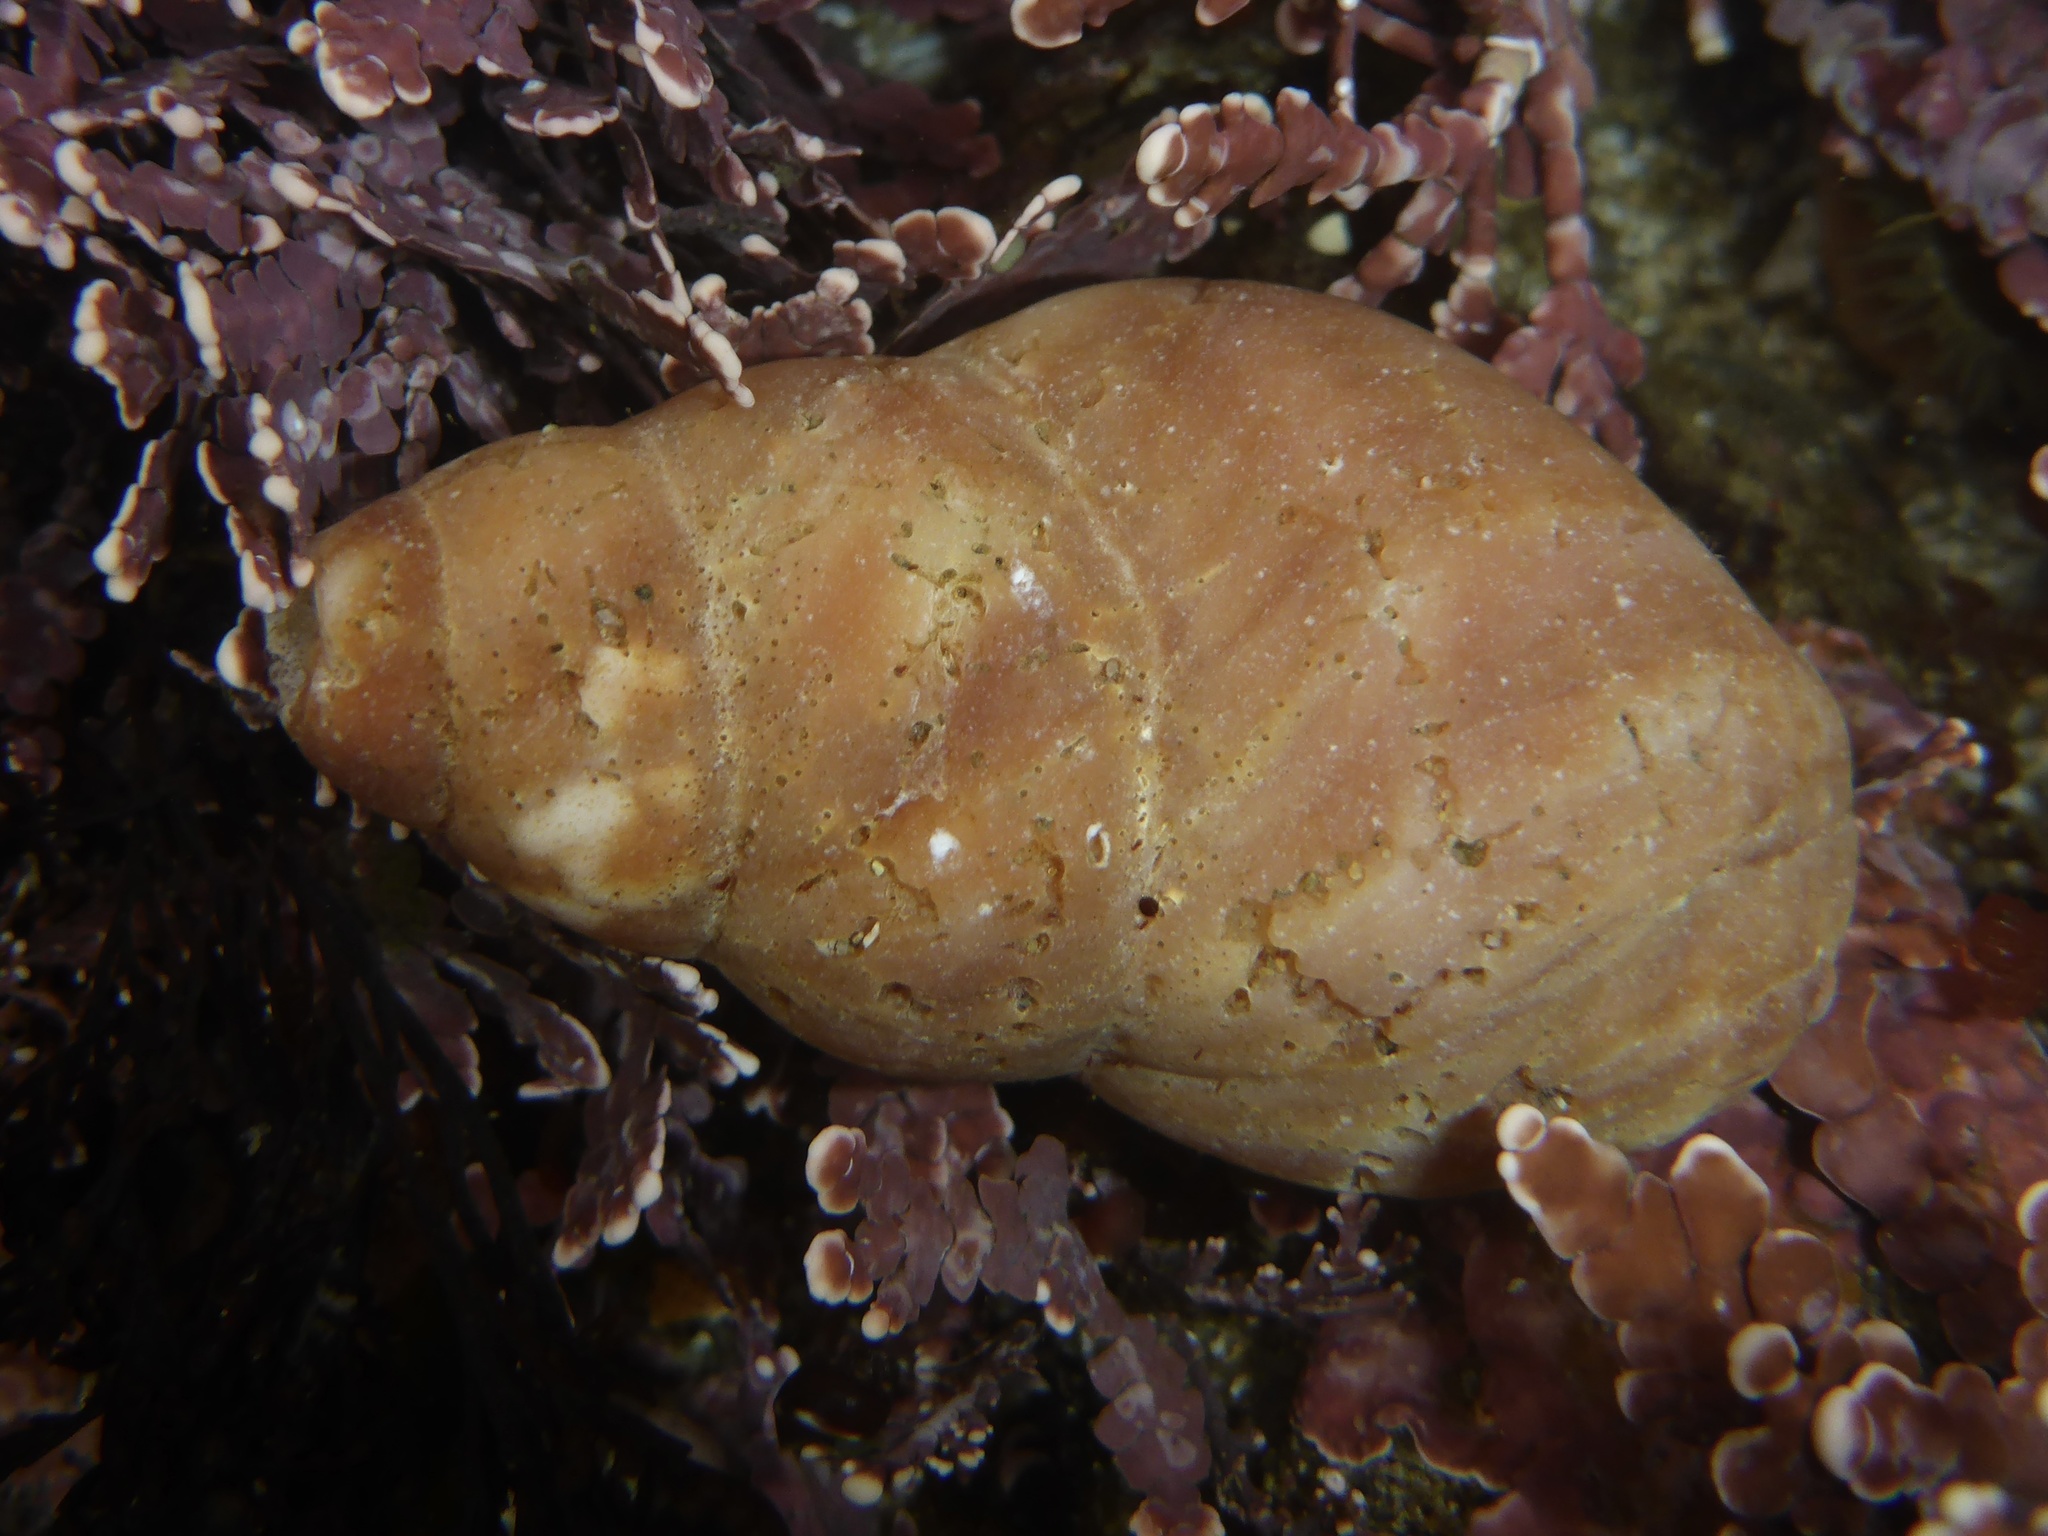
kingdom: Animalia
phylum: Mollusca
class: Gastropoda
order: Neogastropoda
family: Muricidae
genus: Nucella
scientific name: Nucella lamellosa
